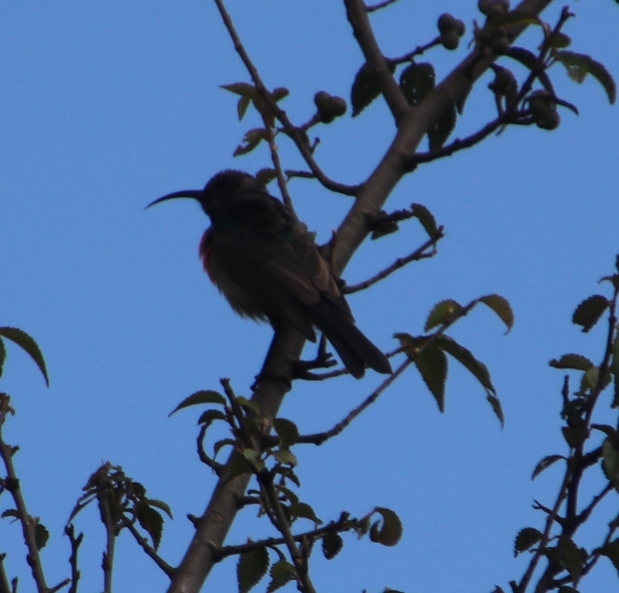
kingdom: Animalia
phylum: Chordata
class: Aves
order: Passeriformes
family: Nectariniidae
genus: Cinnyris
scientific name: Cinnyris afer
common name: Greater double-collared sunbird
